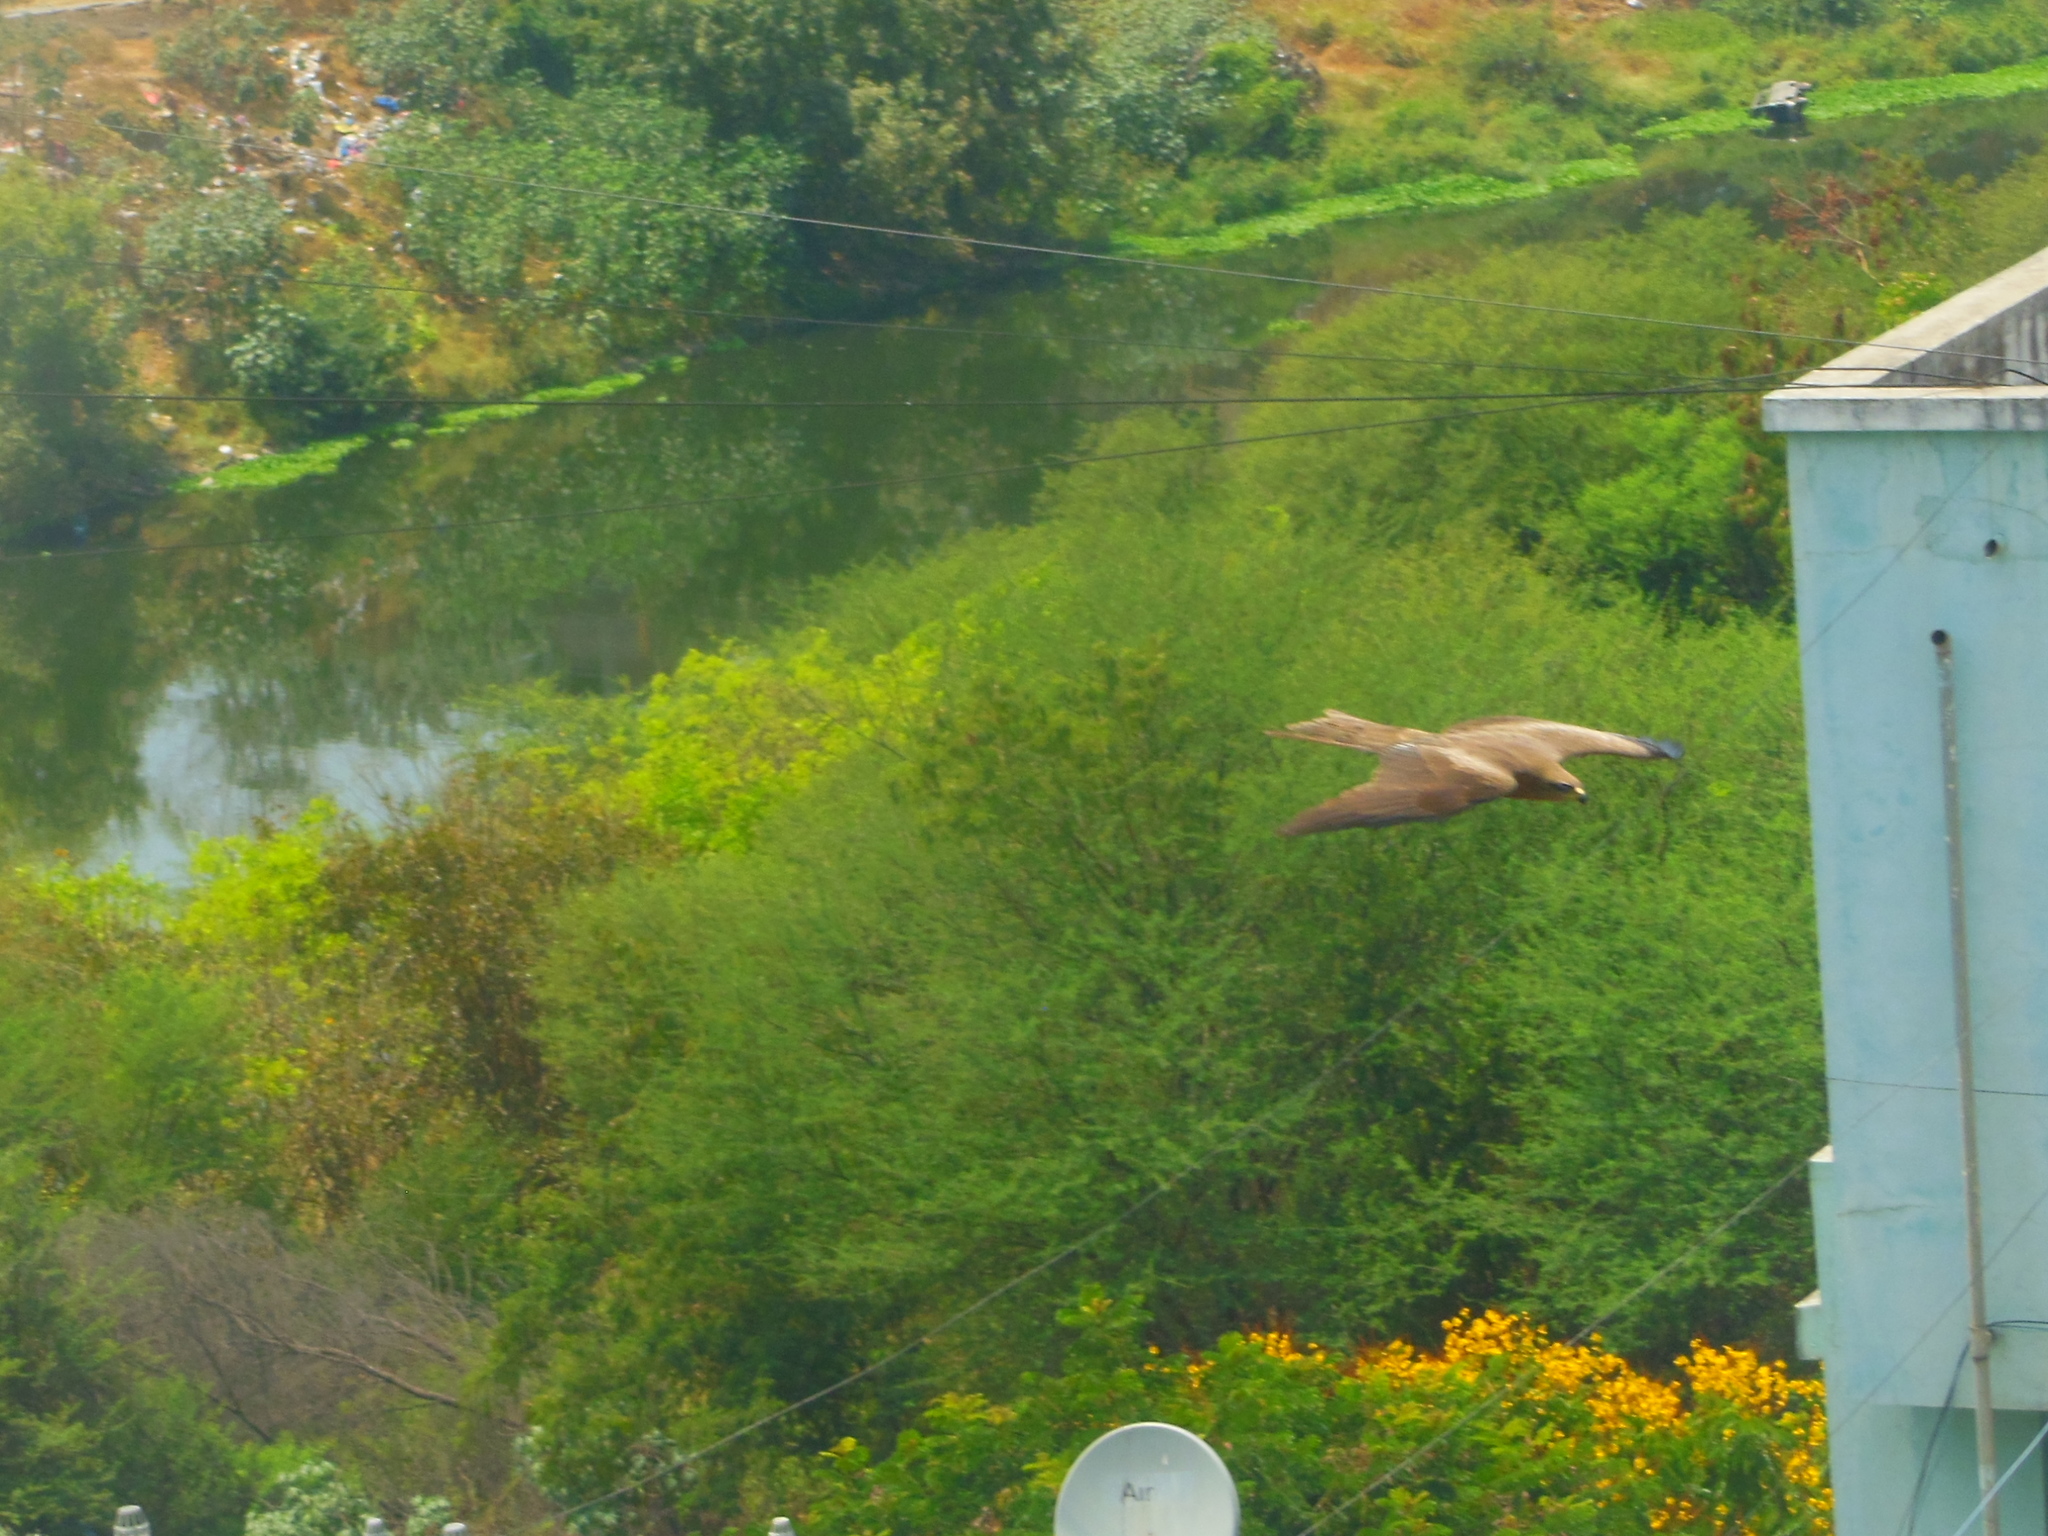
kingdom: Animalia
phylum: Chordata
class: Aves
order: Accipitriformes
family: Accipitridae
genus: Milvus
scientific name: Milvus migrans
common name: Black kite
